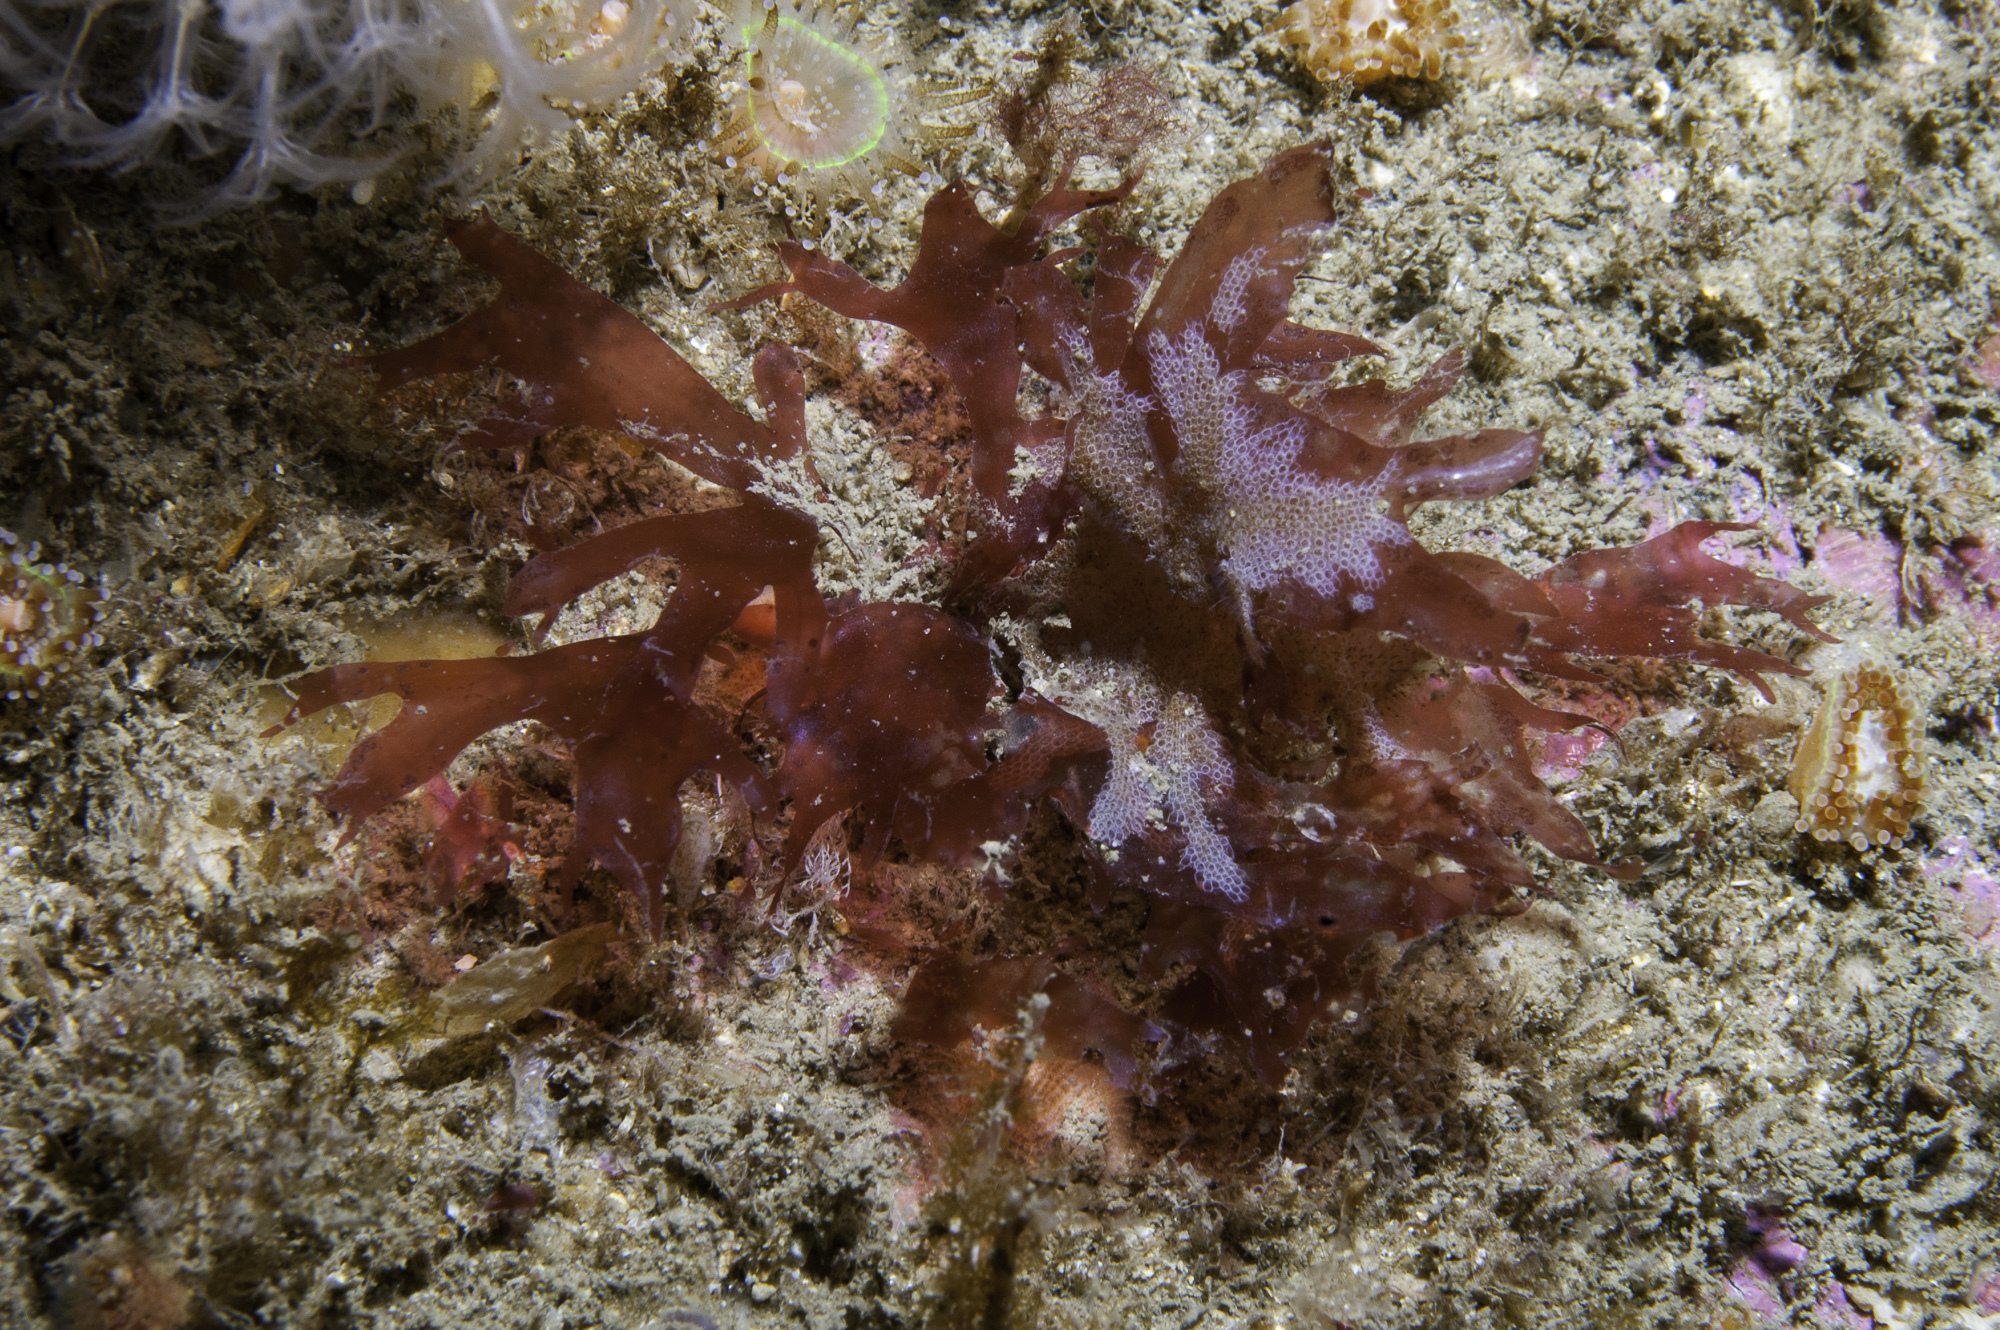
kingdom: Plantae
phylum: Rhodophyta
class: Florideophyceae
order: Ceramiales
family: Delesseriaceae
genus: Acrosorium
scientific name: Acrosorium ciliolatum
